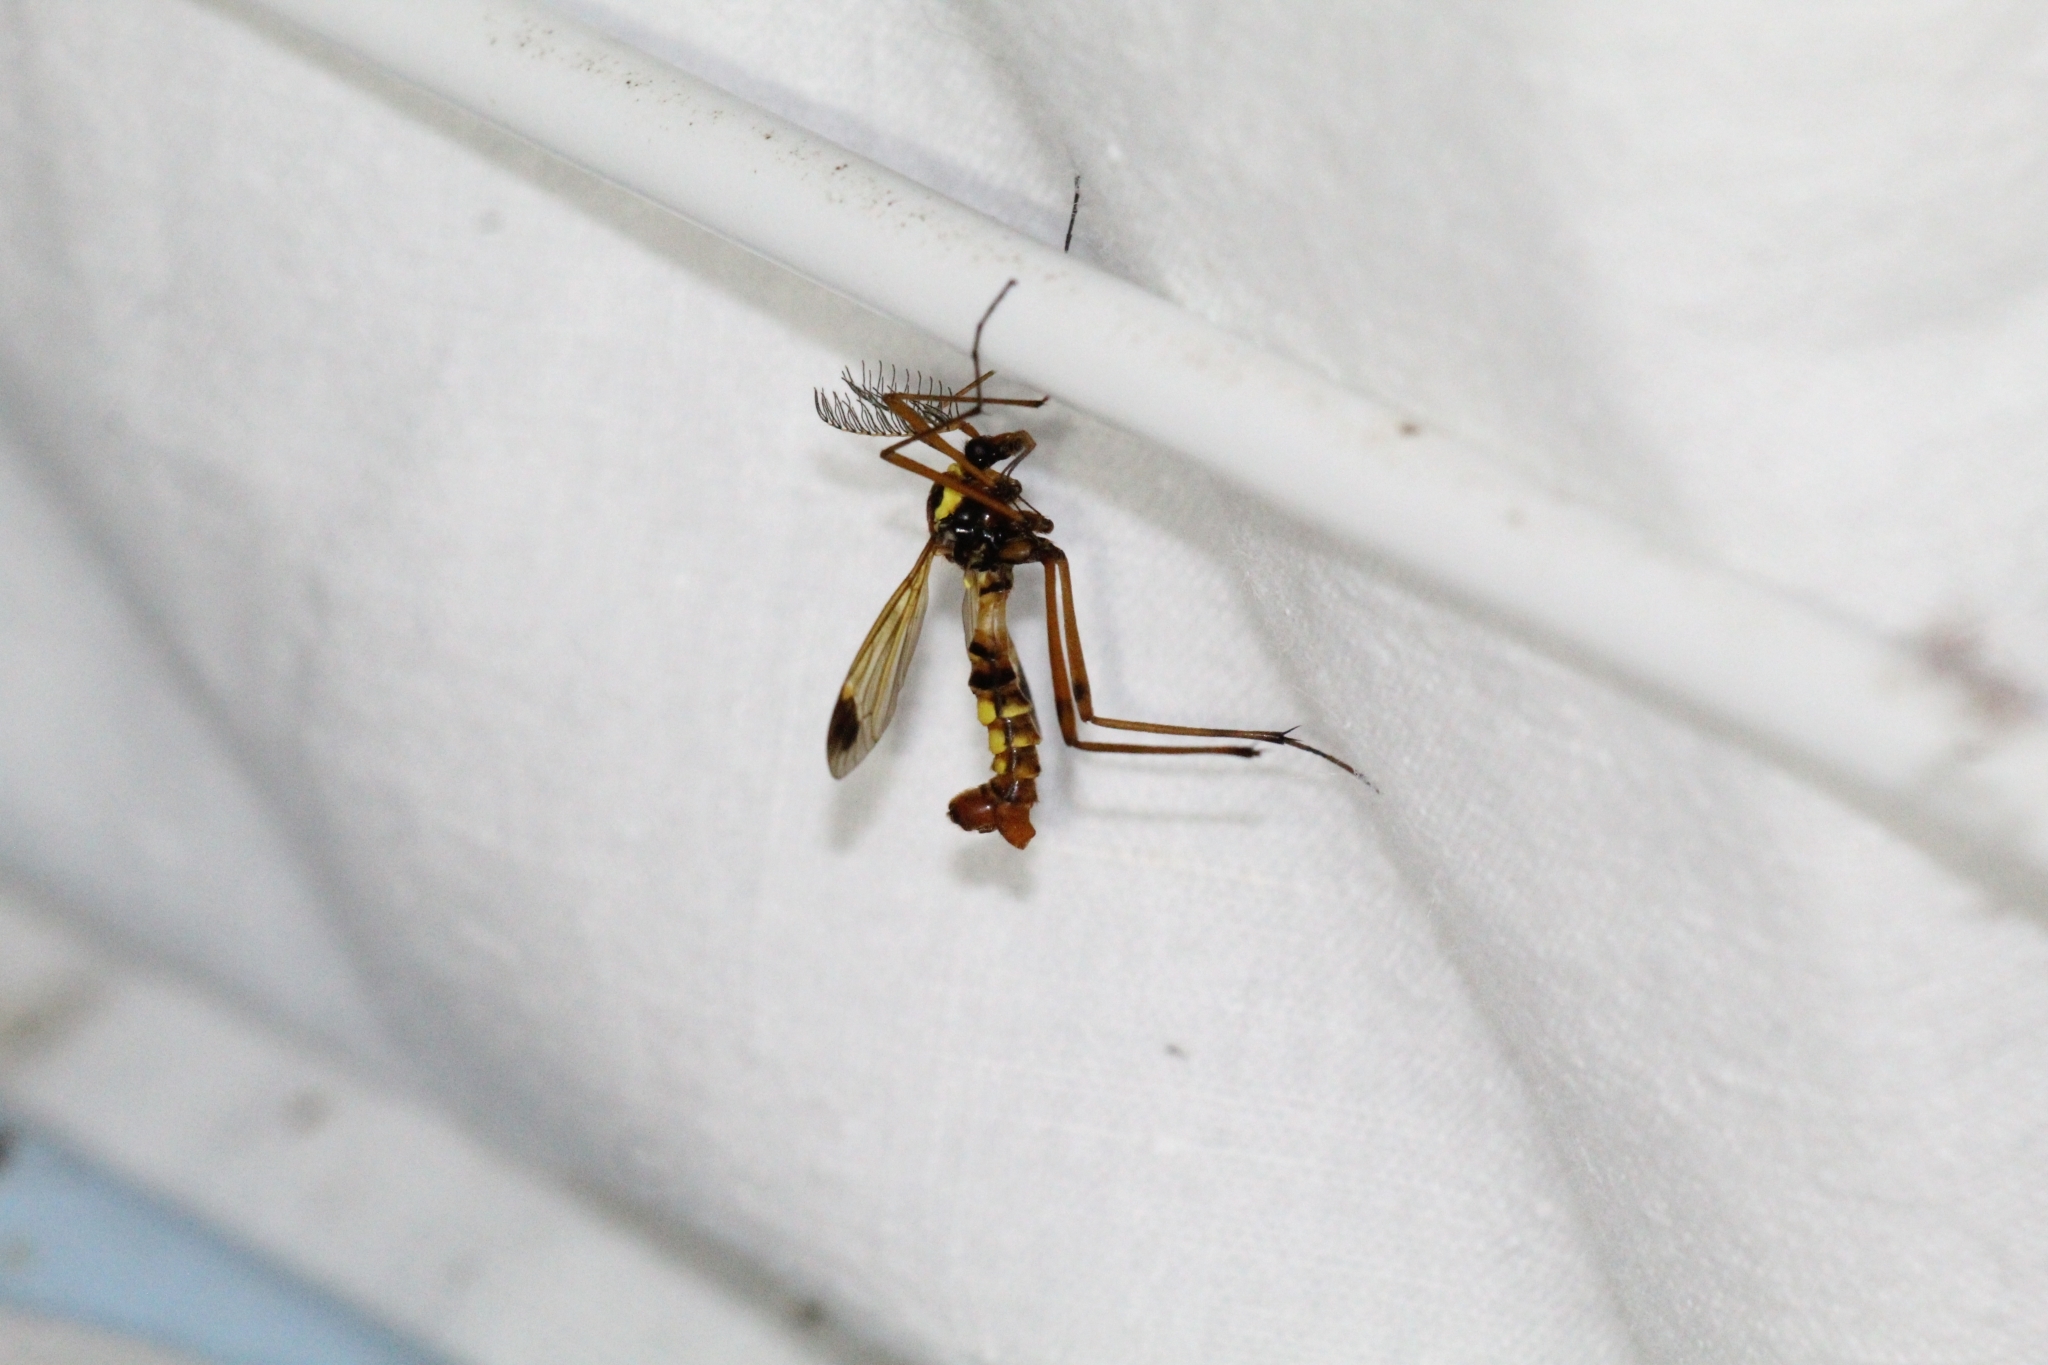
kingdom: Animalia
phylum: Arthropoda
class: Insecta
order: Diptera
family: Tipulidae
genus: Ctenophora
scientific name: Ctenophora ornata
